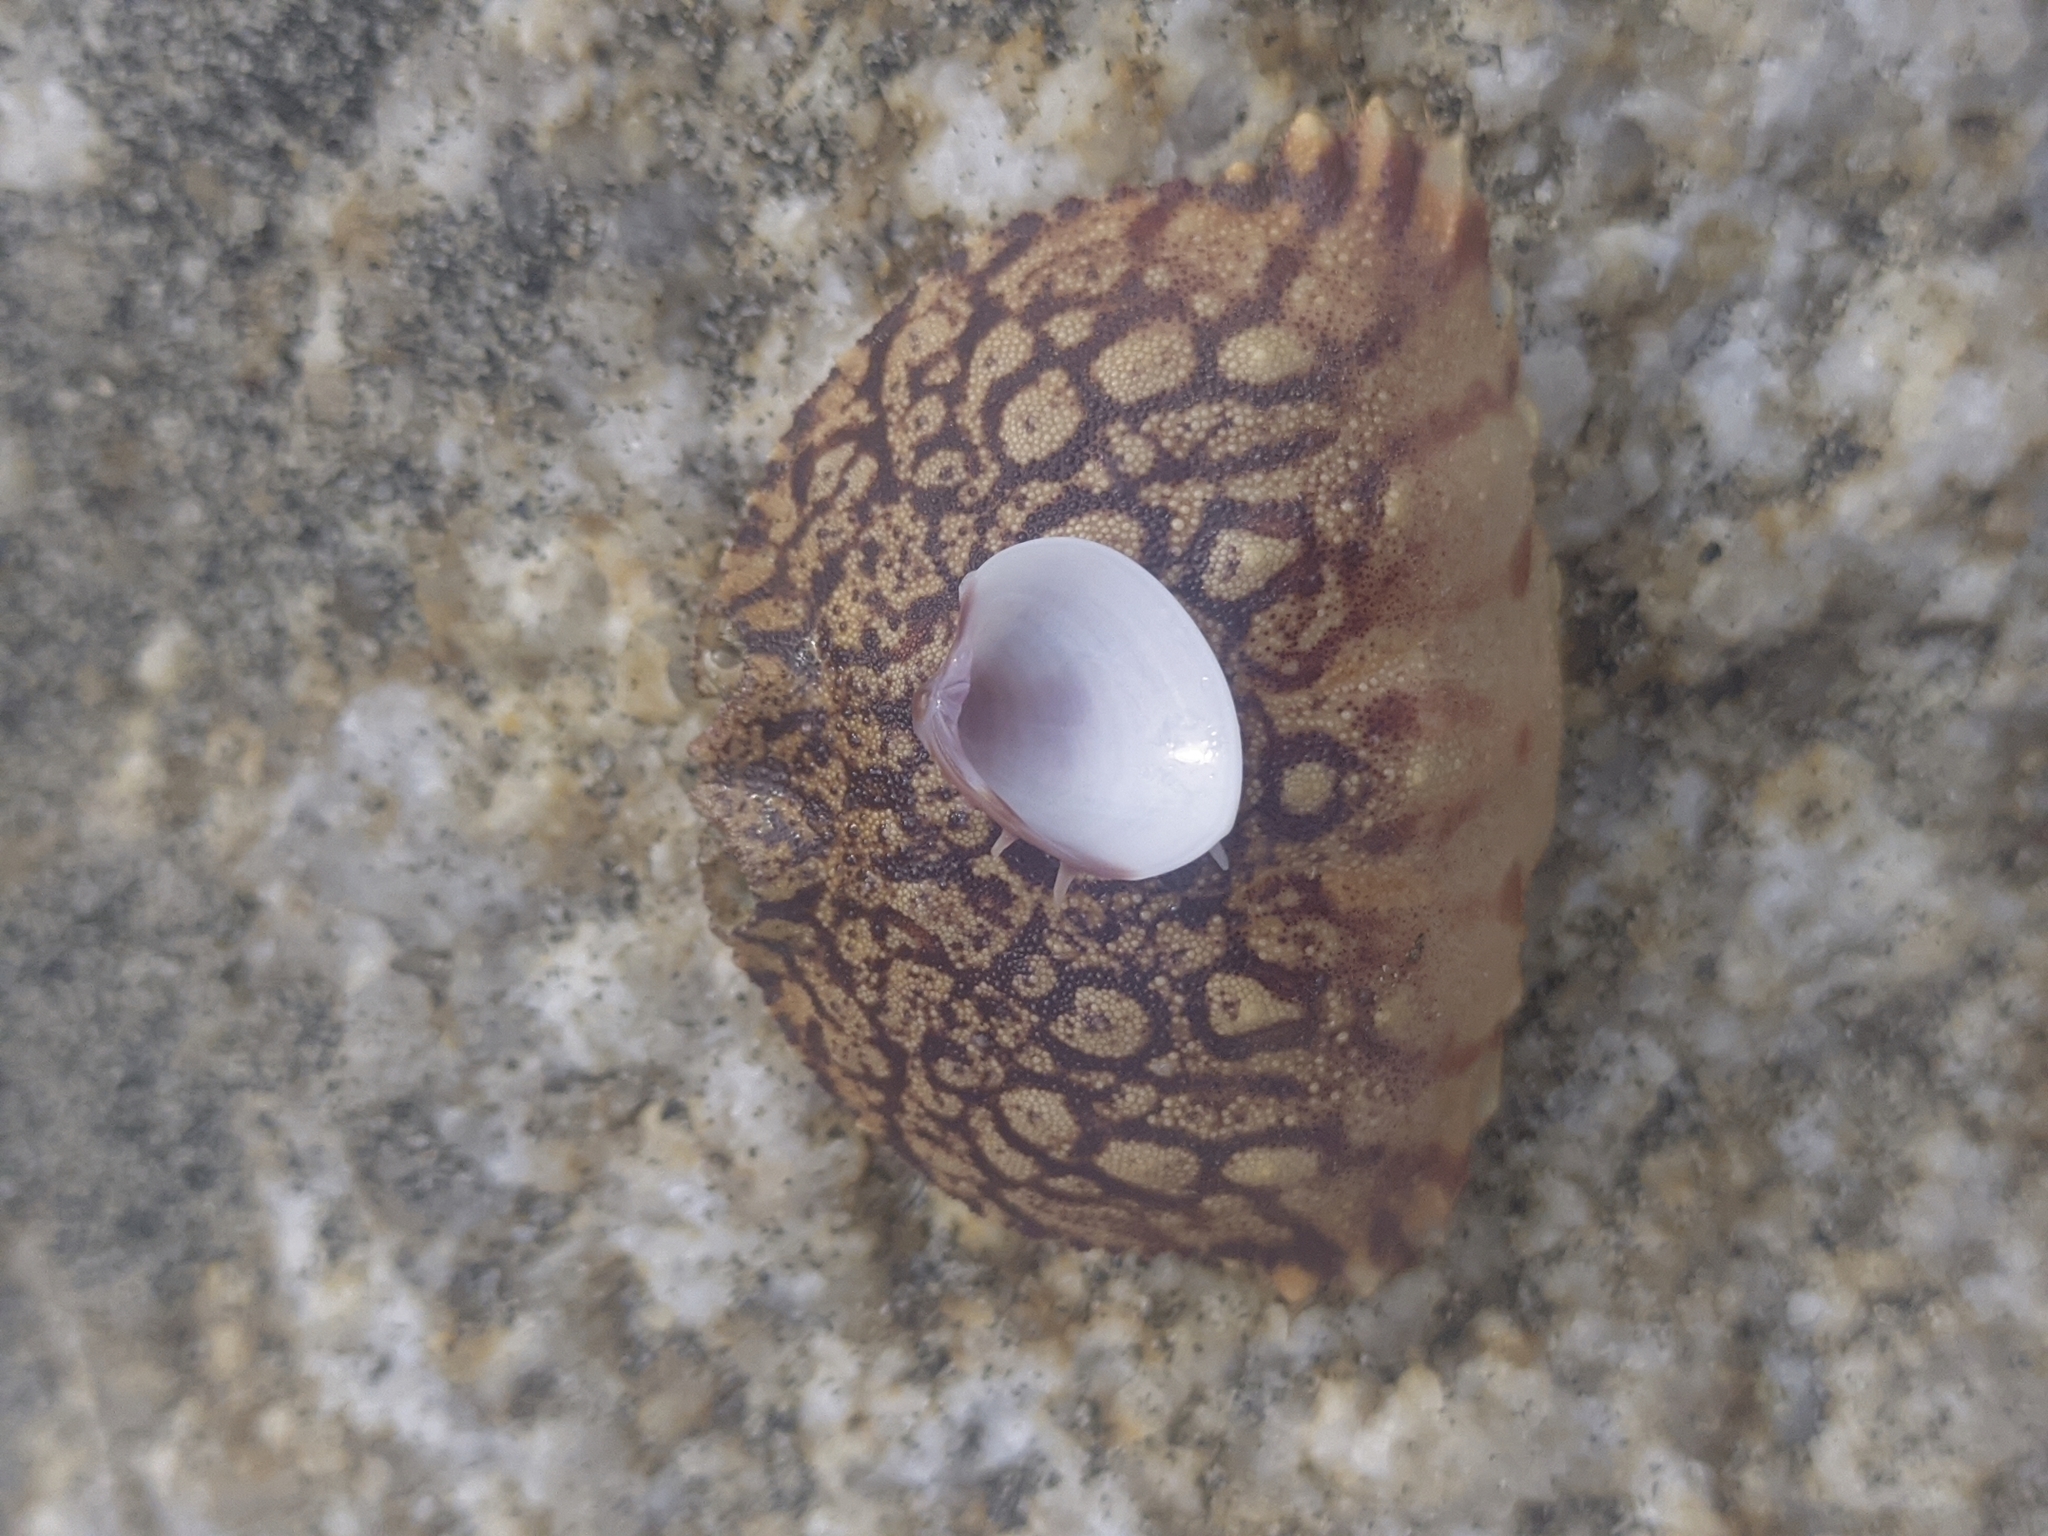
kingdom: Animalia
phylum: Mollusca
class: Bivalvia
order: Venerida
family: Veneridae
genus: Hysteroconcha
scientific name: Hysteroconcha dione
